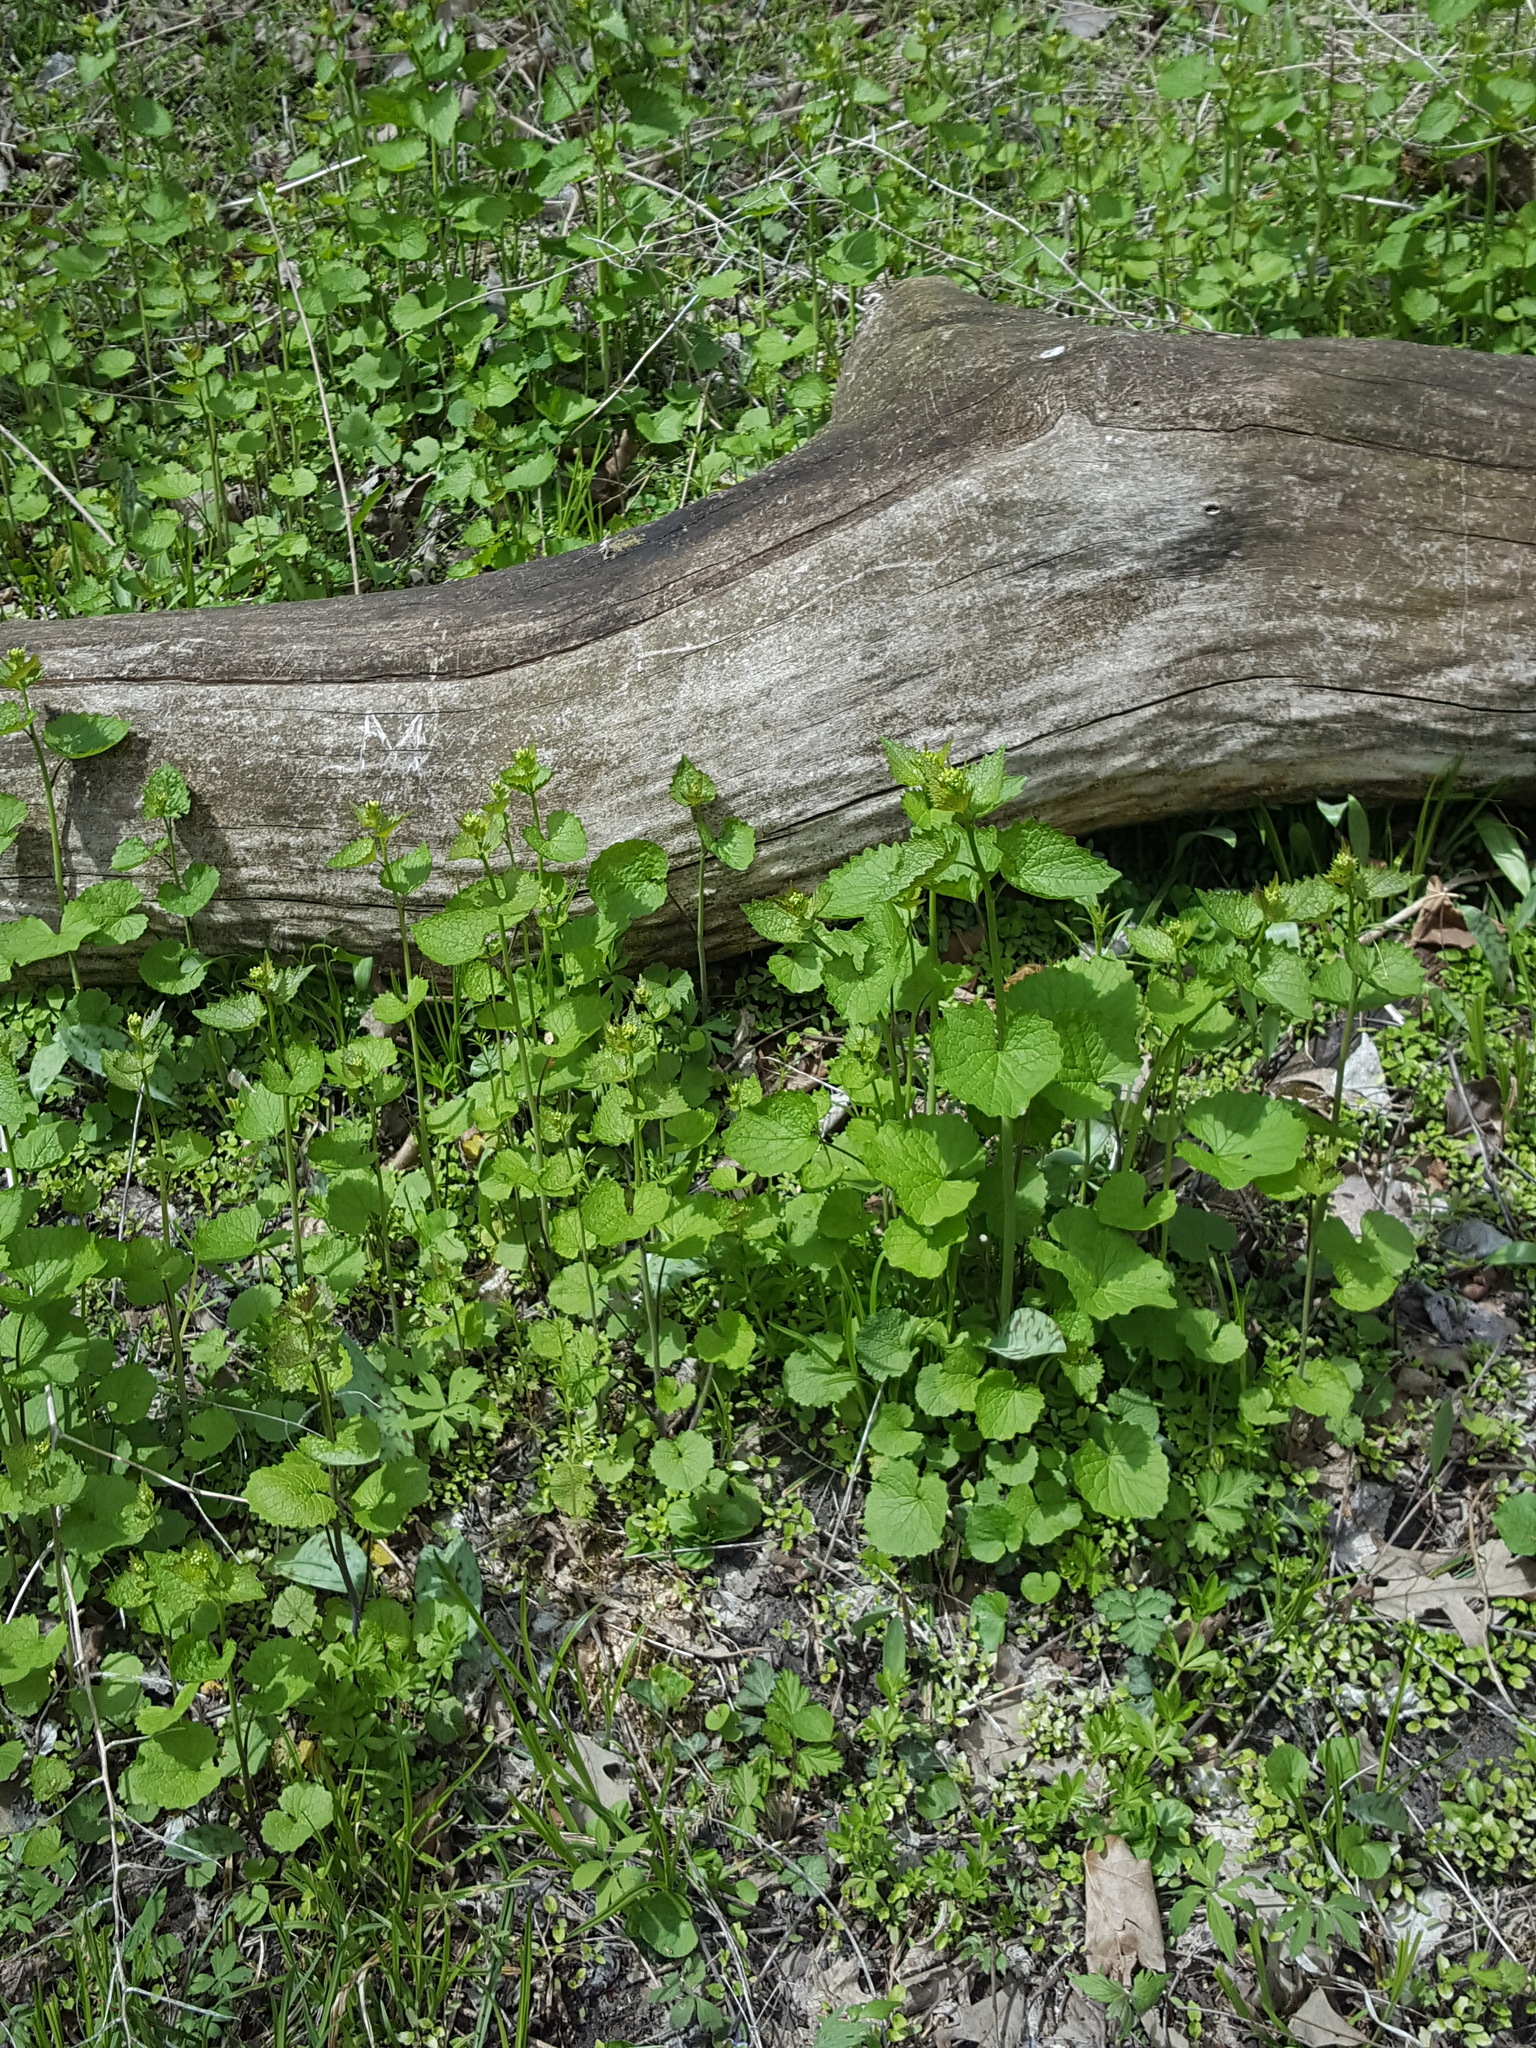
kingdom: Plantae
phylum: Tracheophyta
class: Magnoliopsida
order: Brassicales
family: Brassicaceae
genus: Alliaria
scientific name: Alliaria petiolata
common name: Garlic mustard
